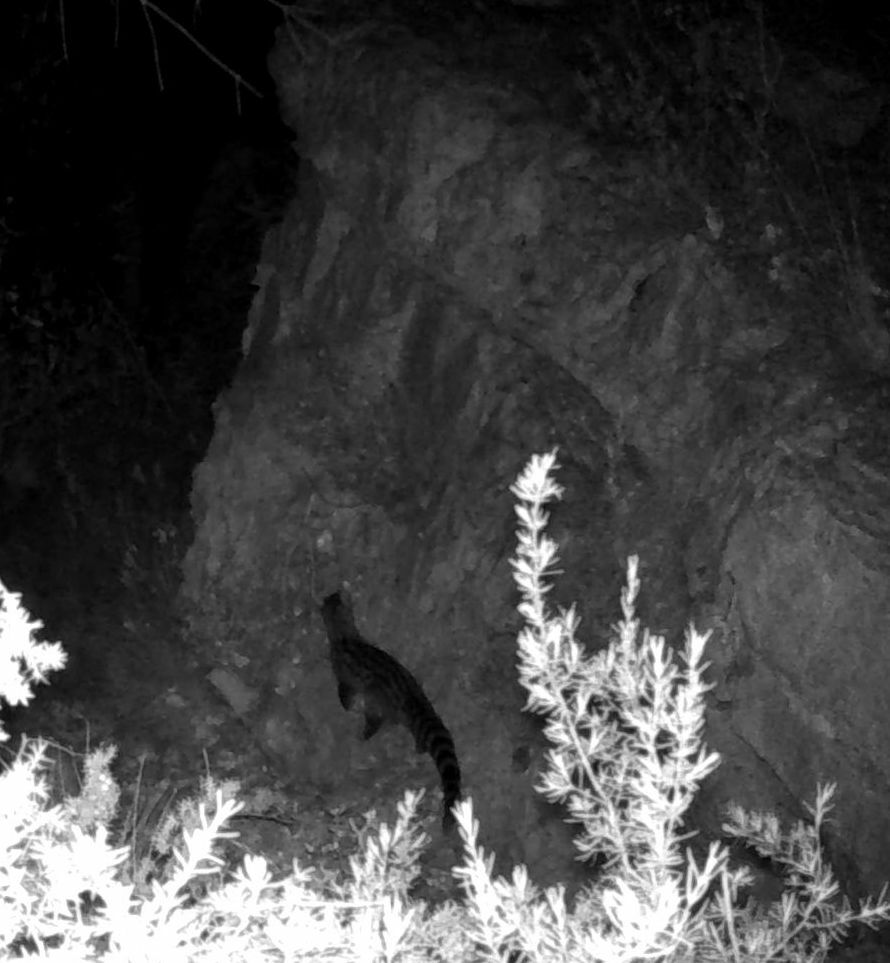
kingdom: Animalia
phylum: Chordata
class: Mammalia
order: Carnivora
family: Viverridae
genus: Genetta
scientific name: Genetta genetta
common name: Common genet
